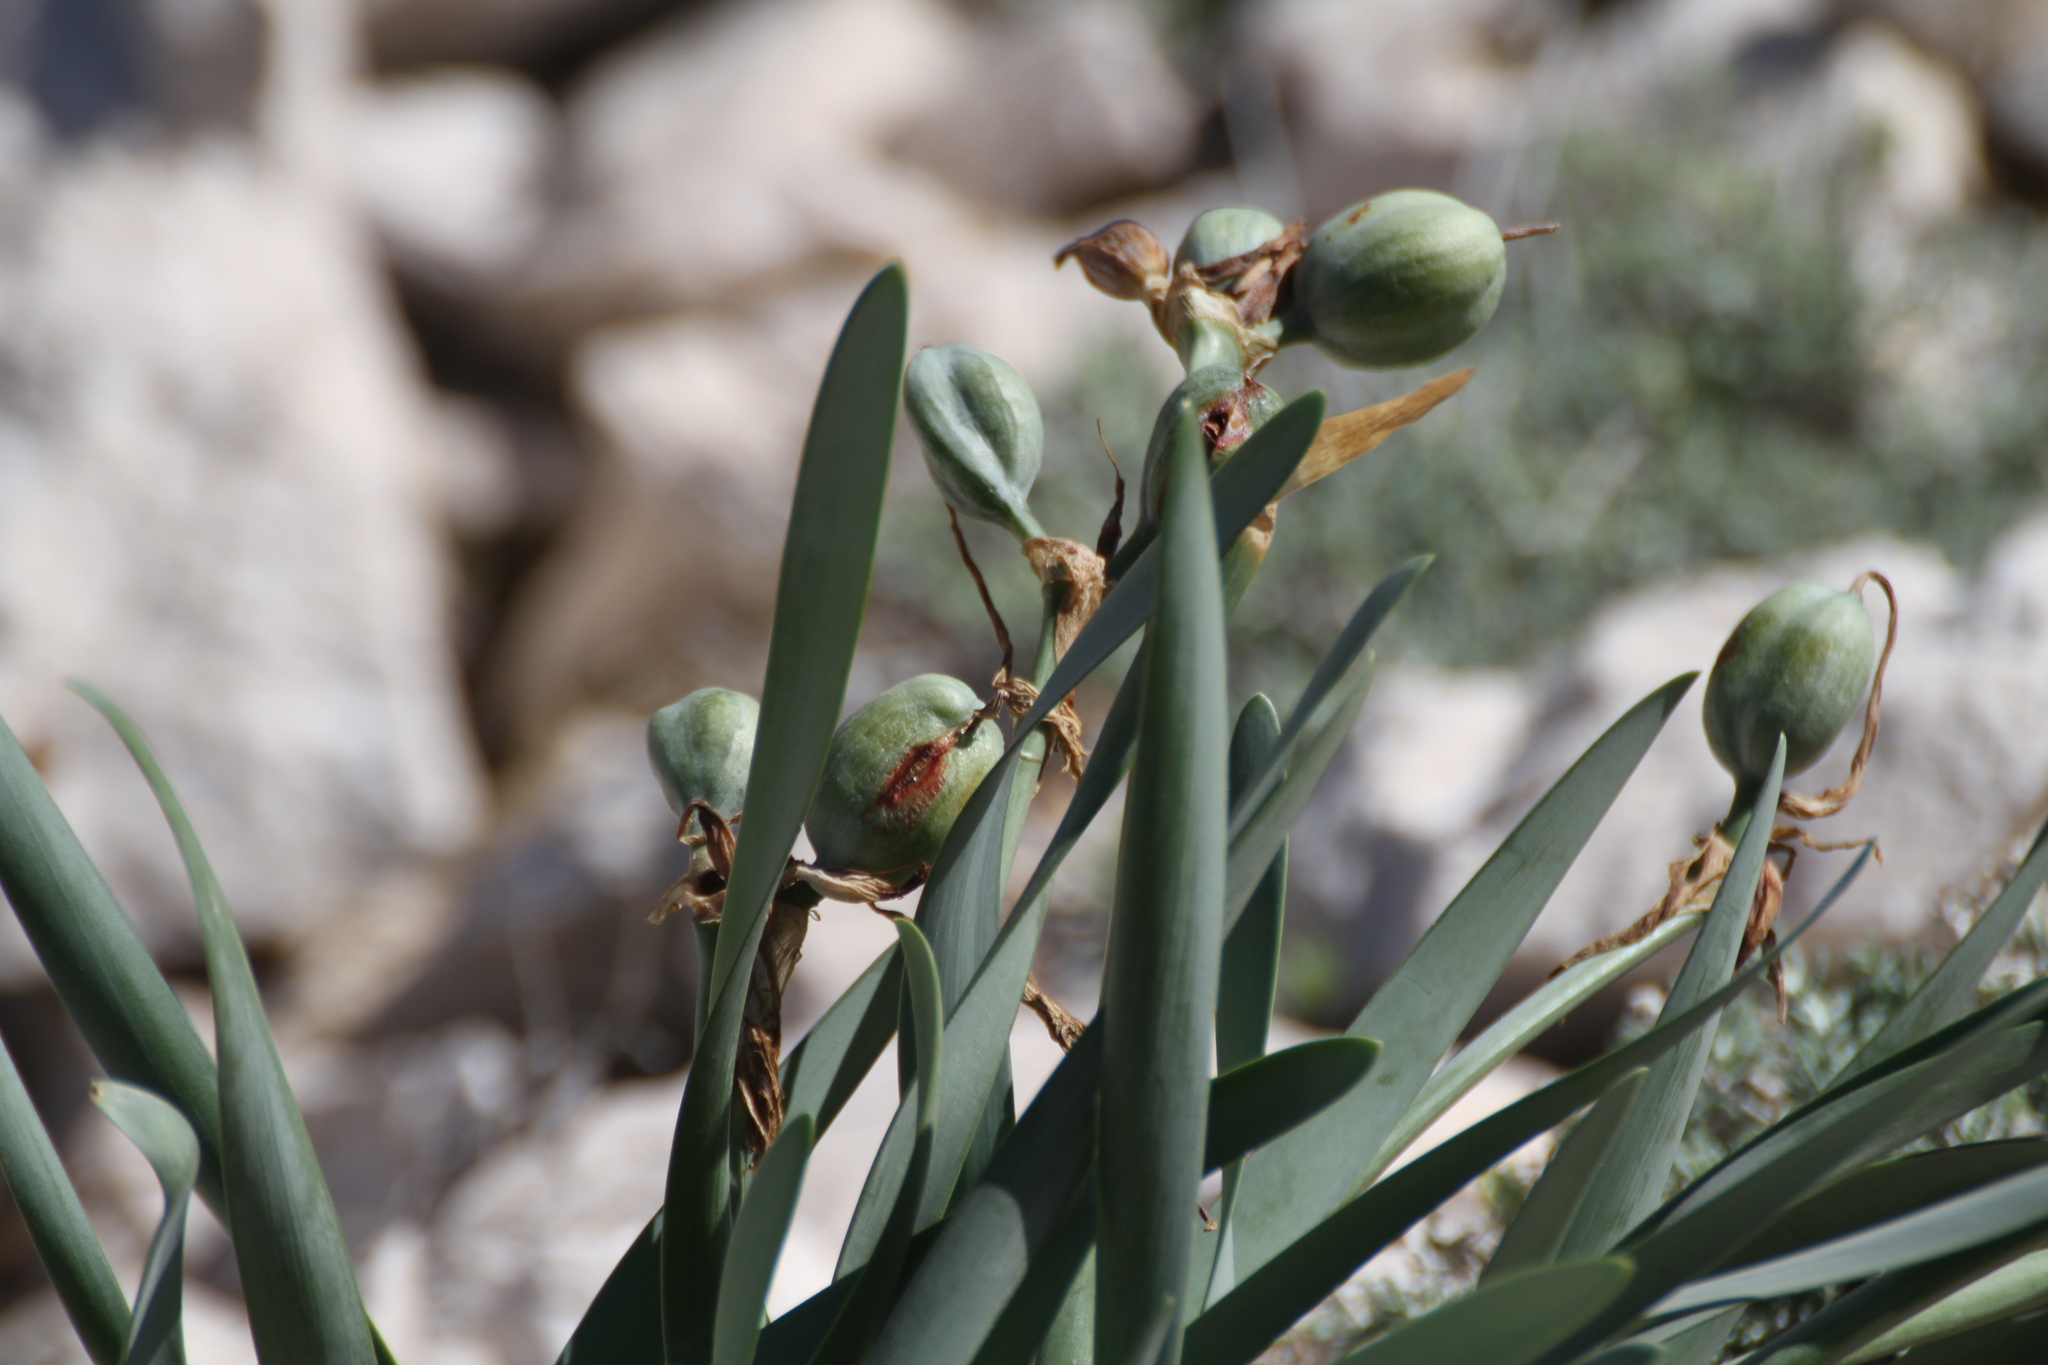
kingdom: Plantae
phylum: Tracheophyta
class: Liliopsida
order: Asparagales
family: Amaryllidaceae
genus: Pancratium
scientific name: Pancratium maritimum
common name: Sea-daffodil
